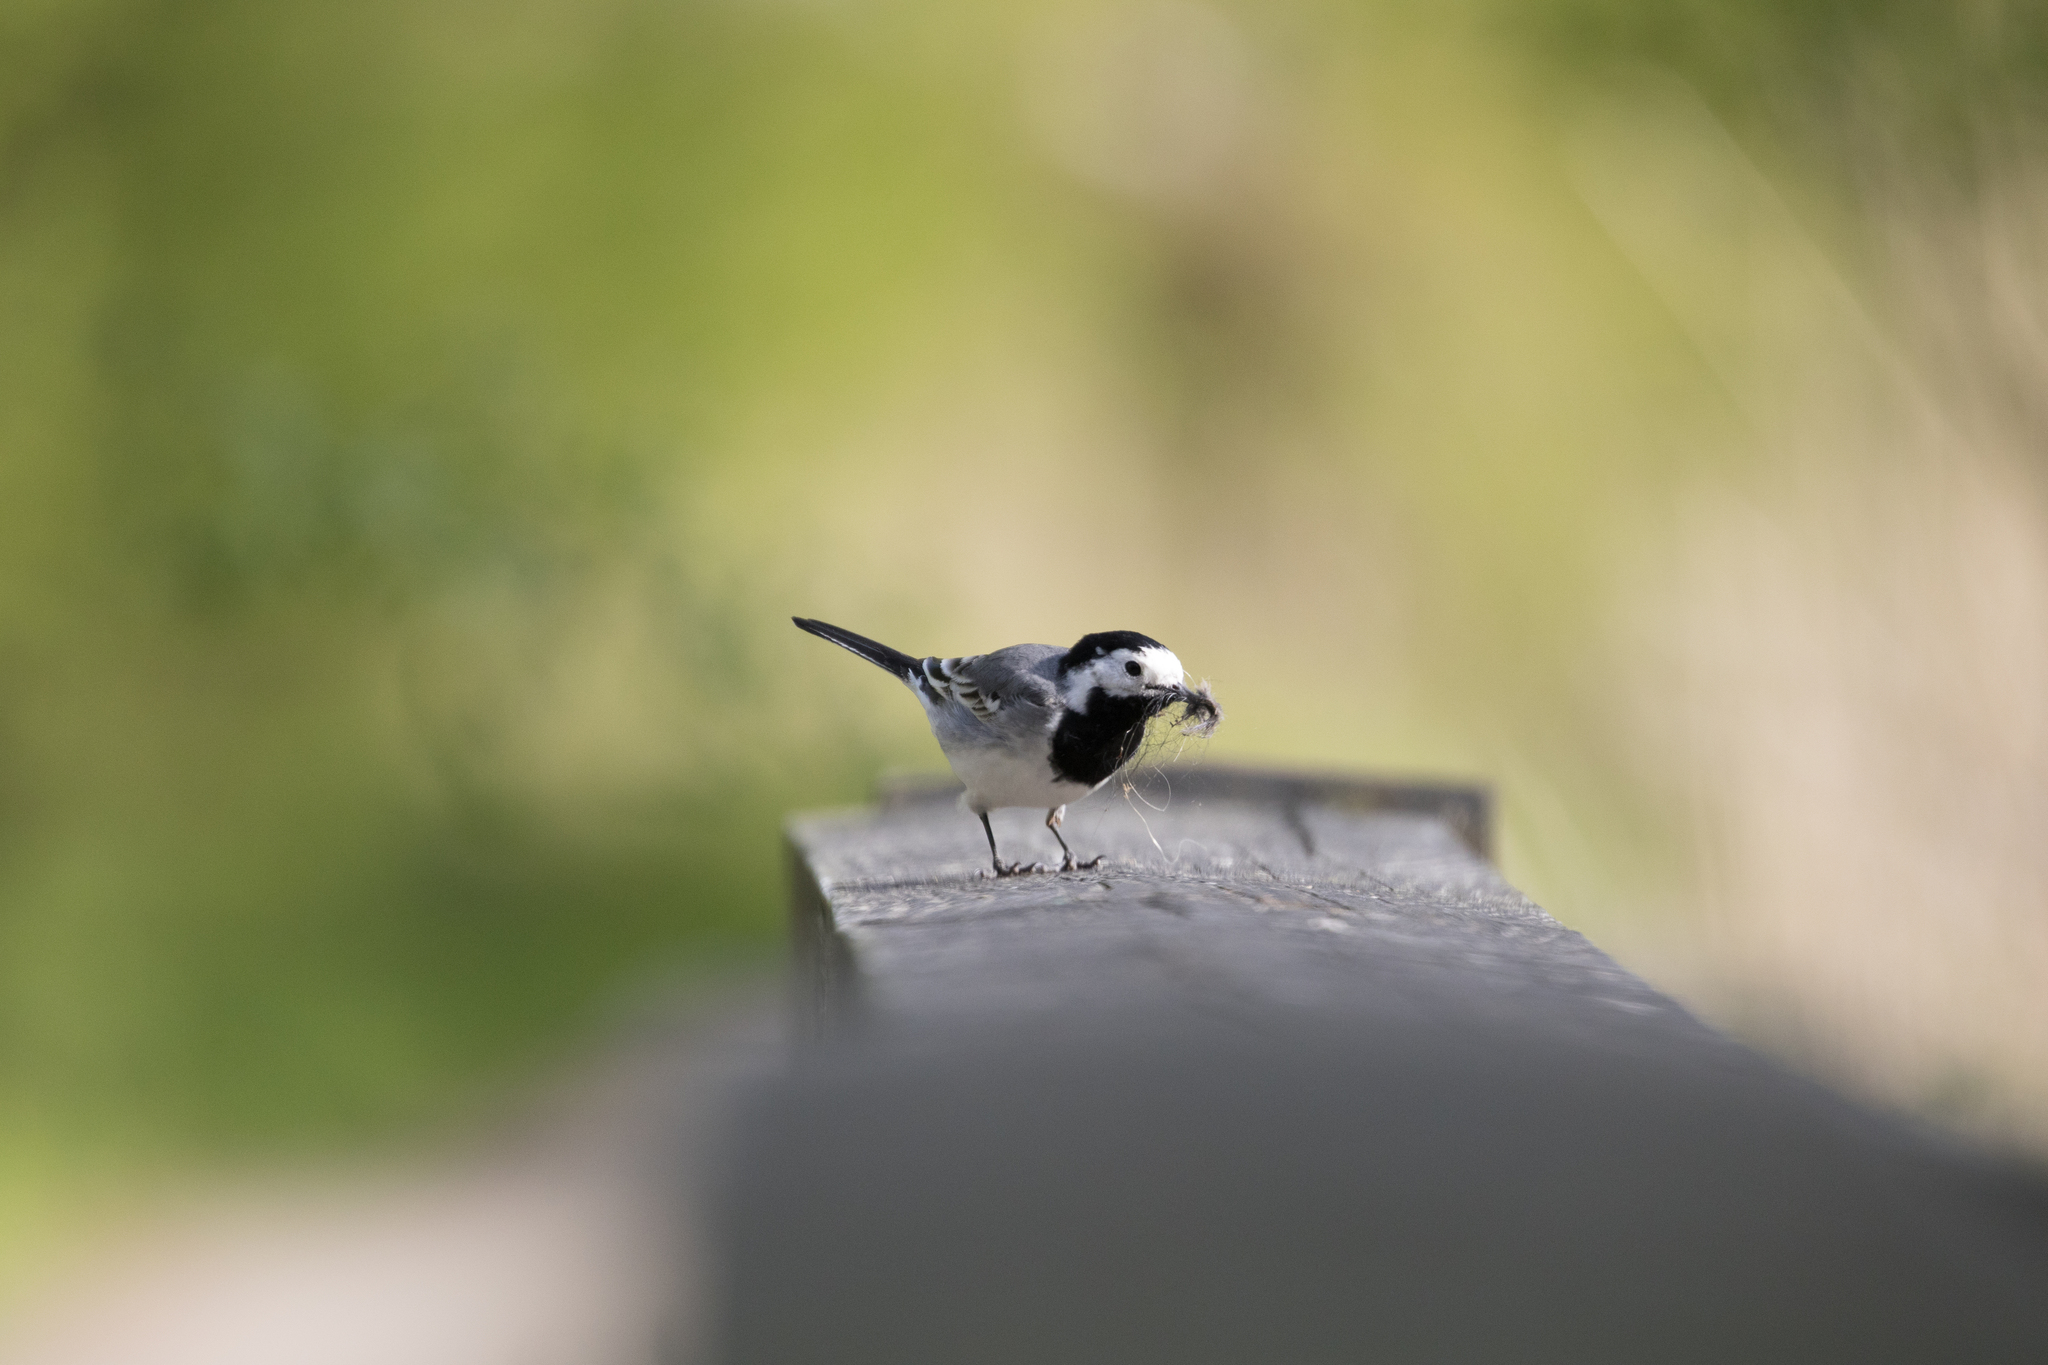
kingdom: Animalia
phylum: Chordata
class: Aves
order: Passeriformes
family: Motacillidae
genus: Motacilla
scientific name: Motacilla alba
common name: White wagtail
